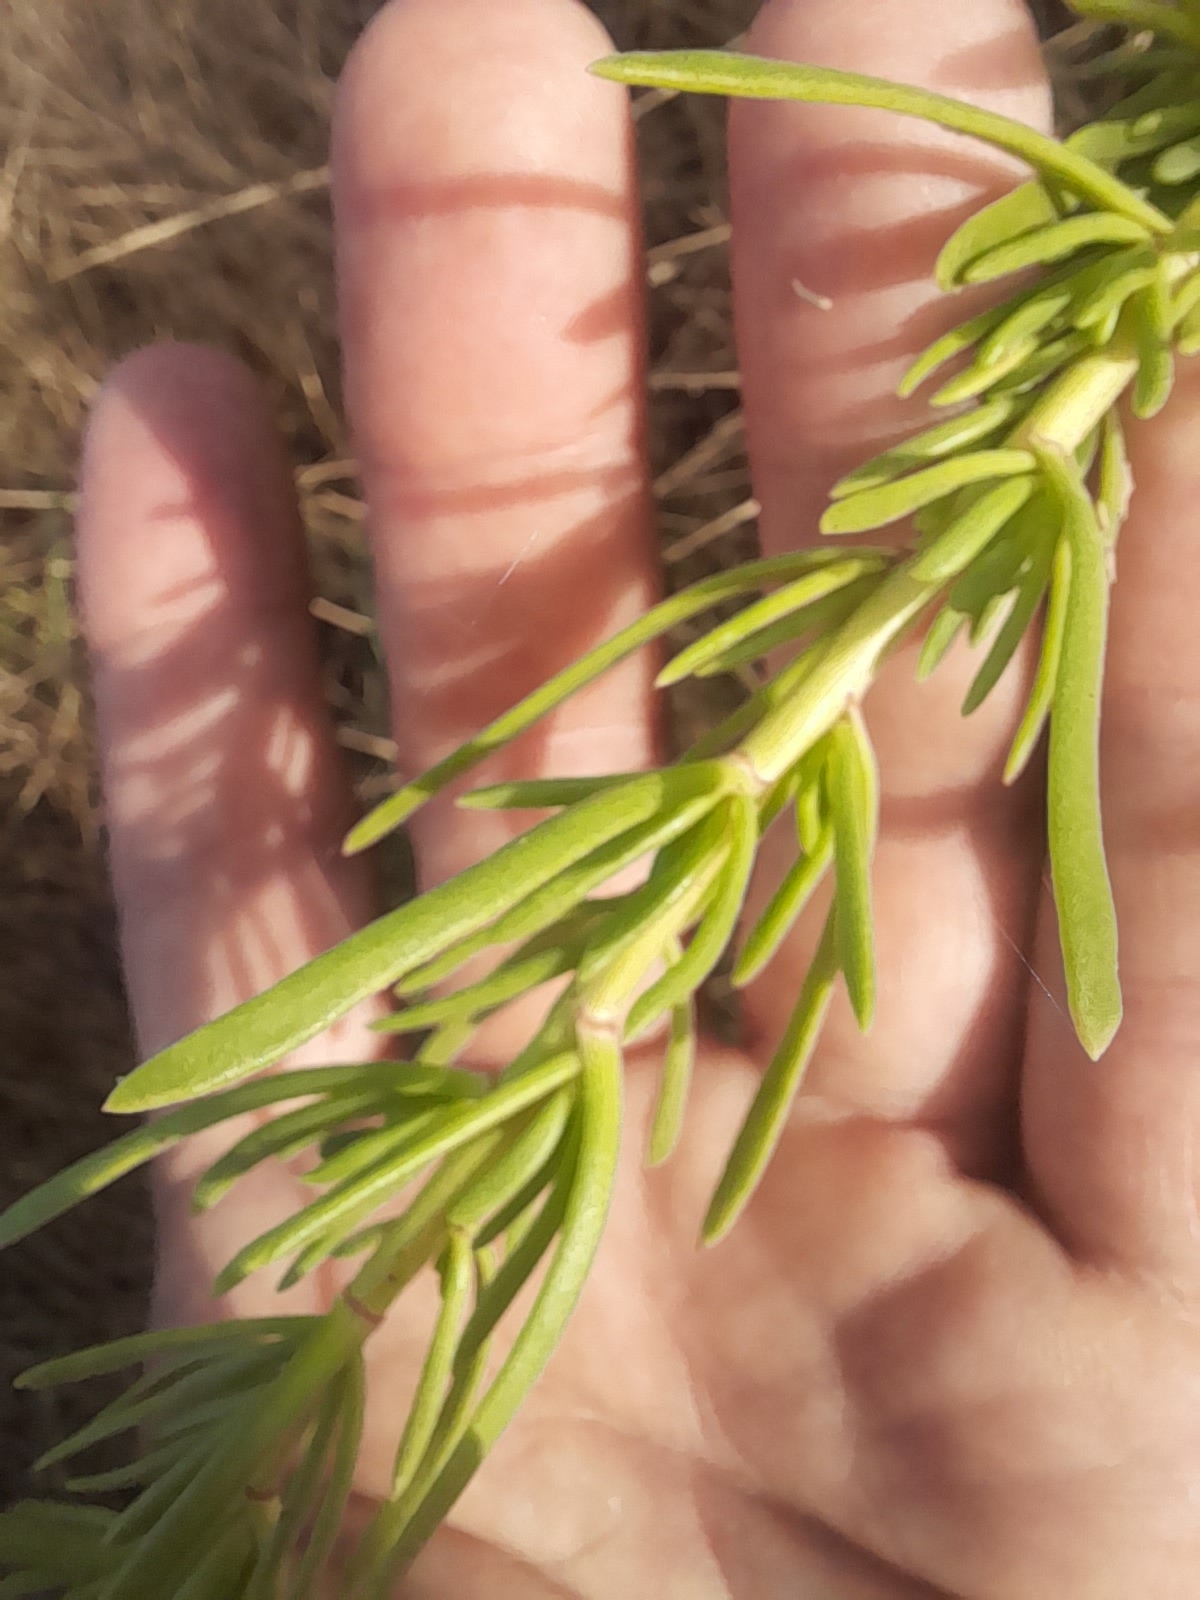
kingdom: Plantae
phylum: Tracheophyta
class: Magnoliopsida
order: Asterales
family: Asteraceae
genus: Limbarda
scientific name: Limbarda crithmoides
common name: Golden samphire
